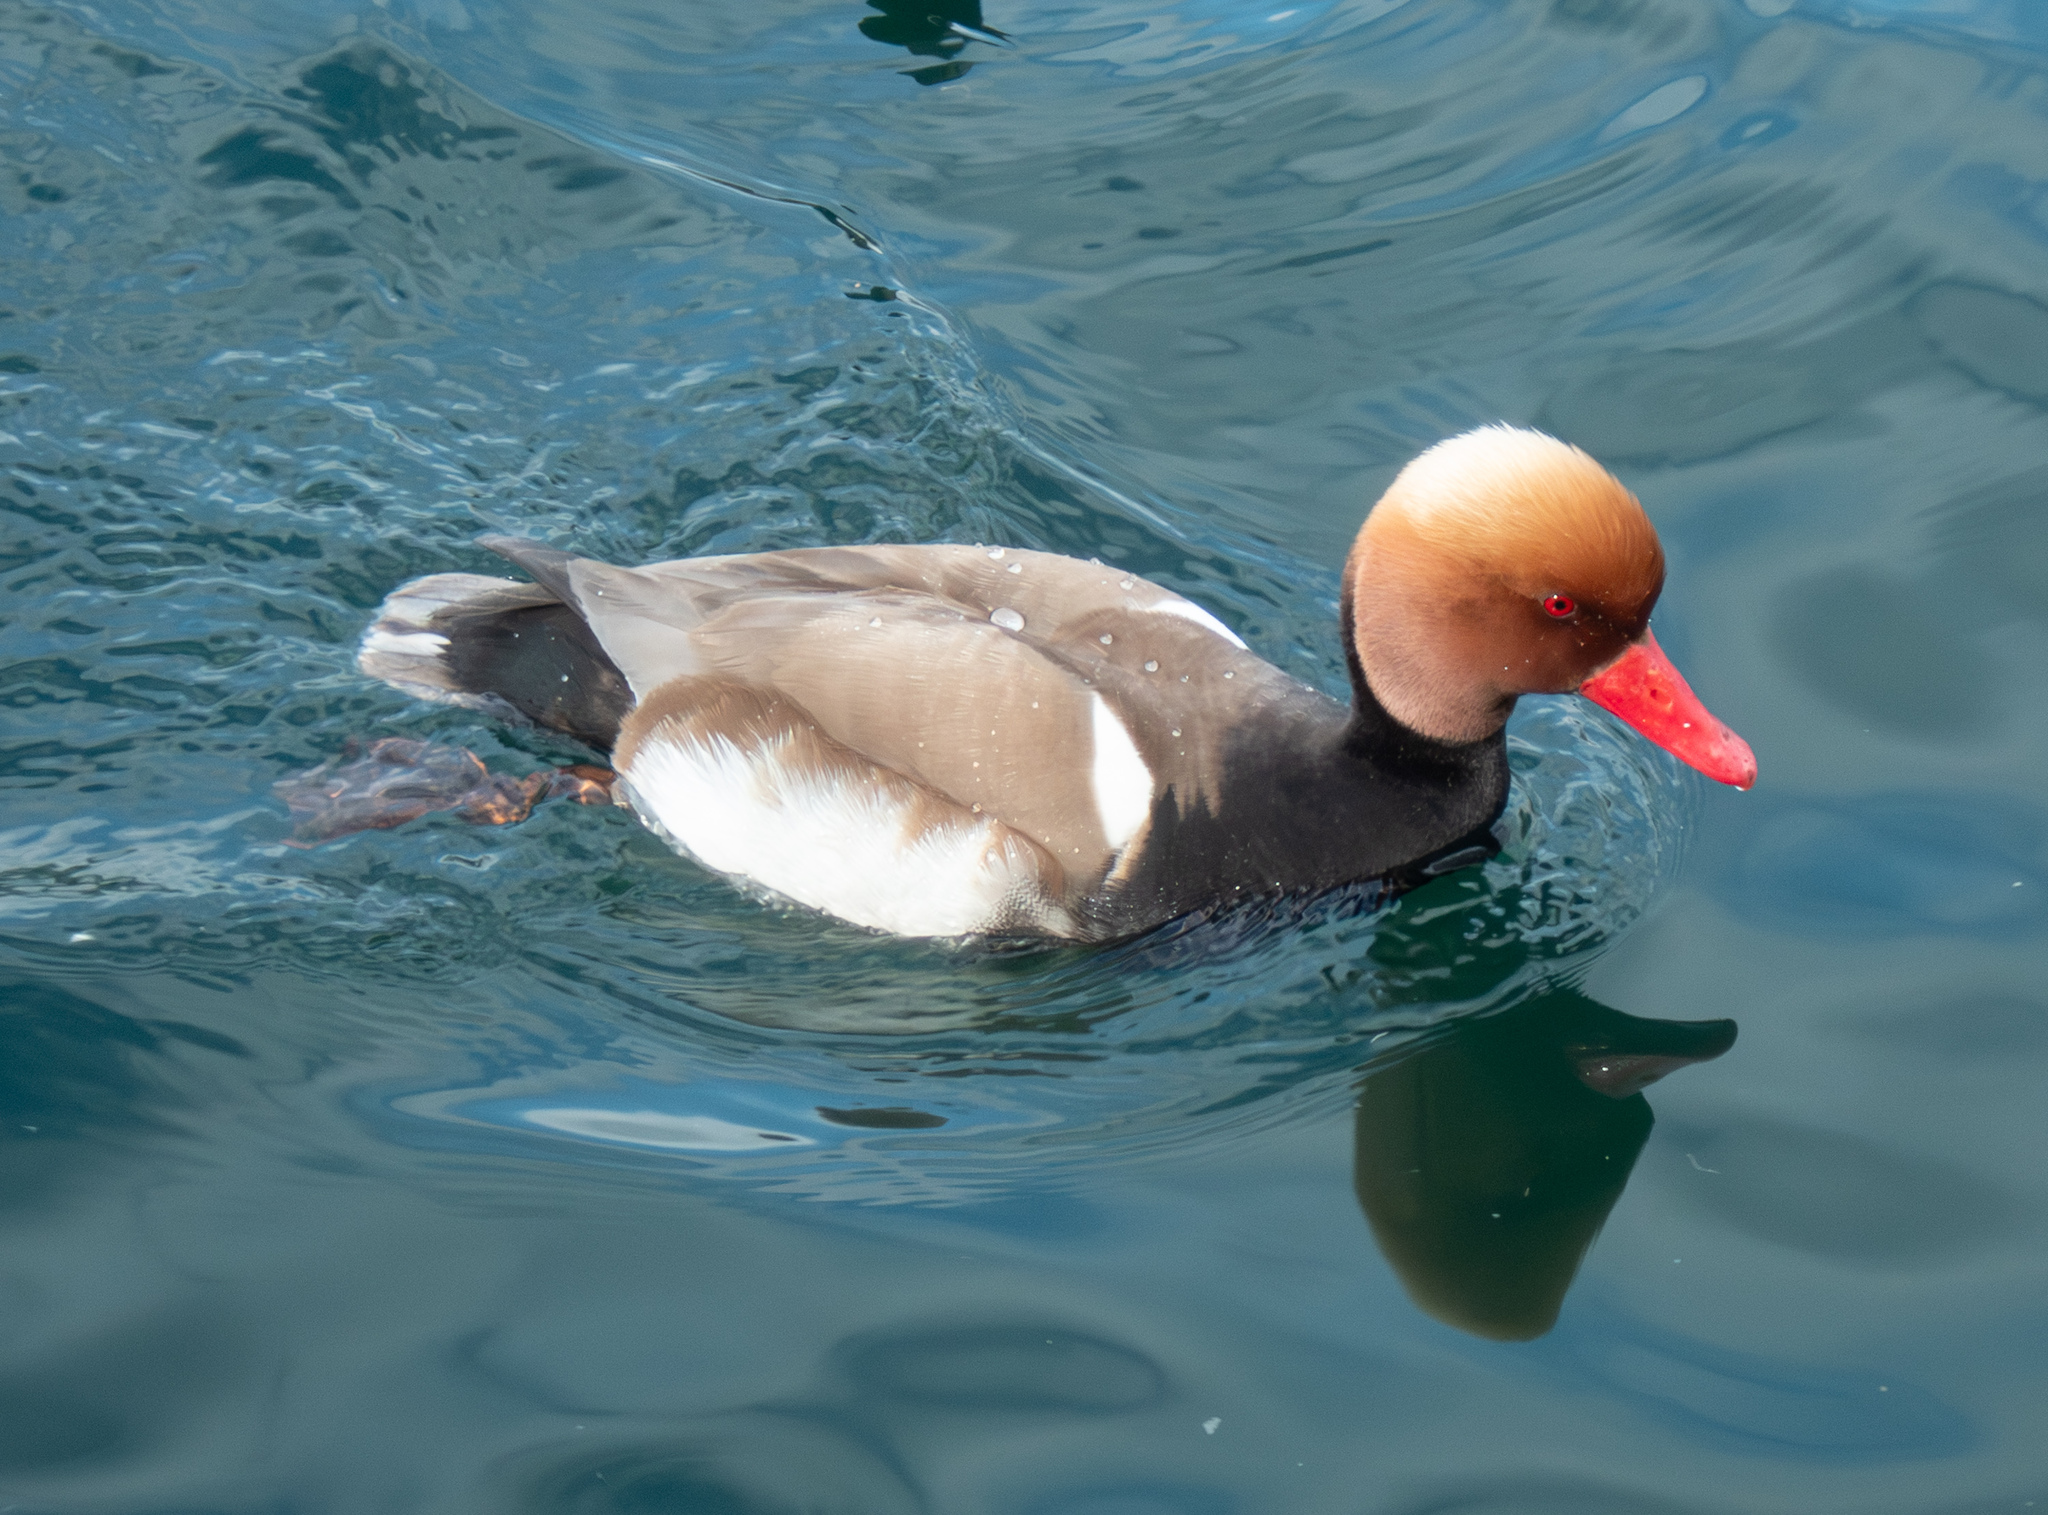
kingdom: Animalia
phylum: Chordata
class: Aves
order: Anseriformes
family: Anatidae
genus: Netta
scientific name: Netta rufina
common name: Red-crested pochard
